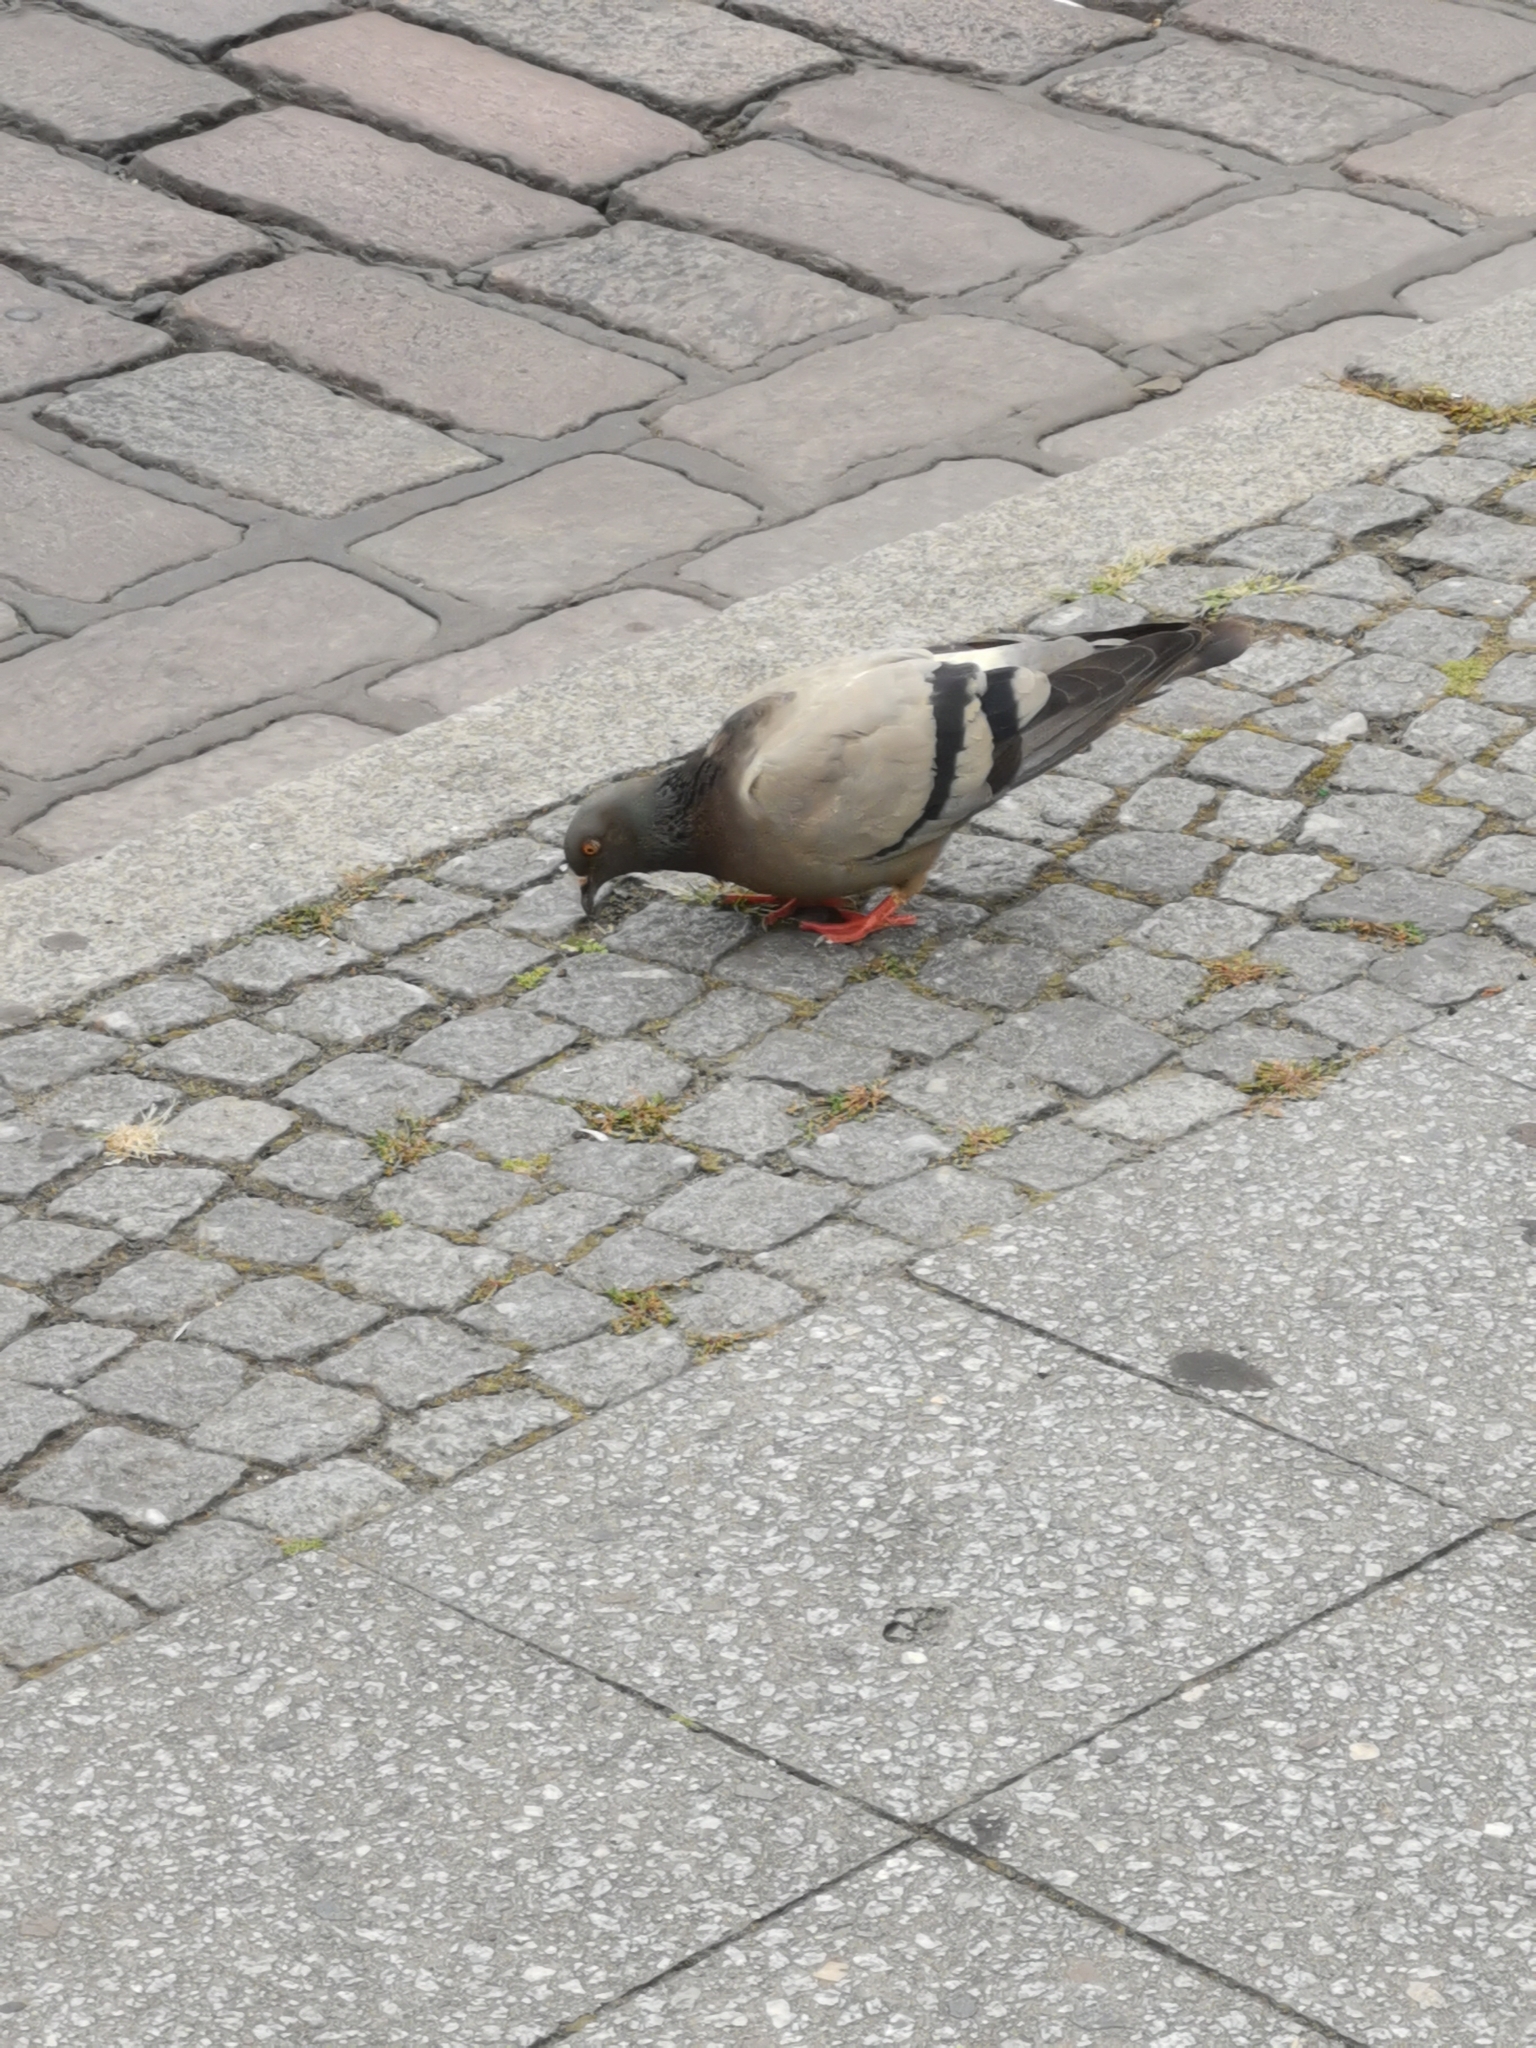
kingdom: Animalia
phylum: Chordata
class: Aves
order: Columbiformes
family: Columbidae
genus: Columba
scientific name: Columba livia
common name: Rock pigeon
